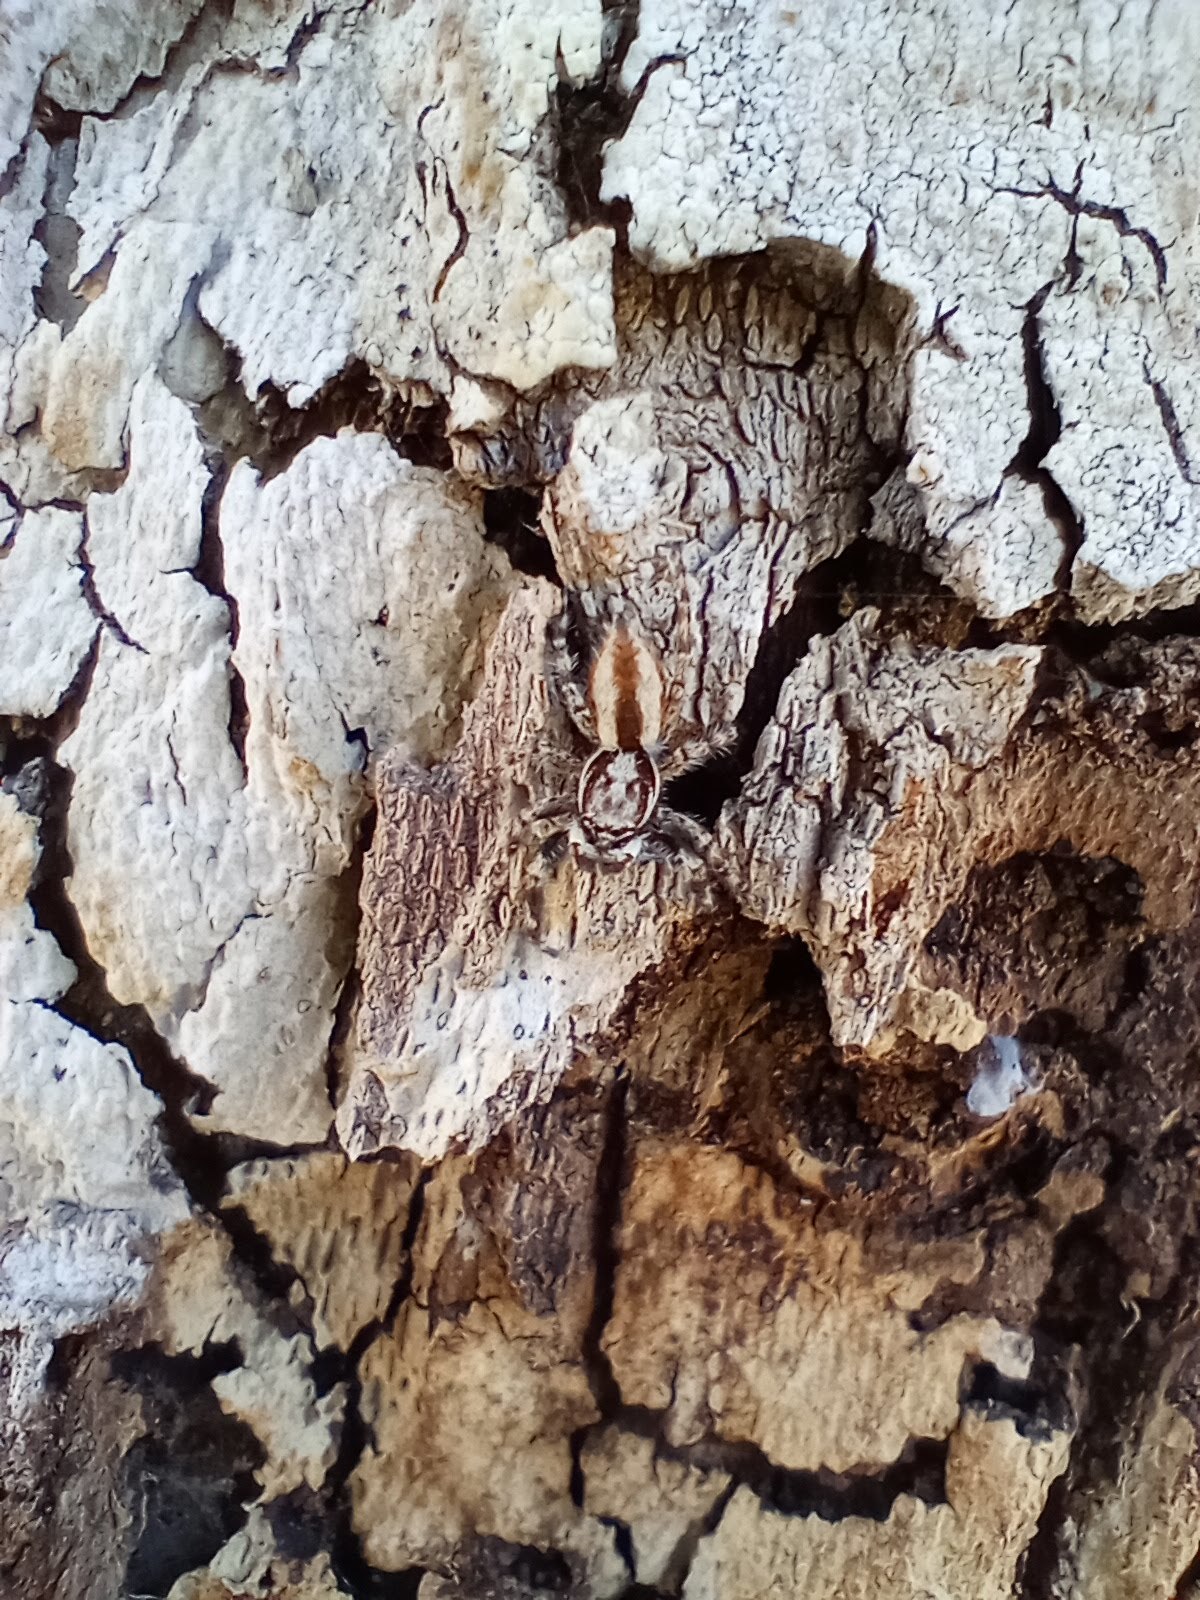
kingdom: Animalia
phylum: Arthropoda
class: Arachnida
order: Araneae
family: Salticidae
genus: Menemerus
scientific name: Menemerus bivittatus
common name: Gray wall jumper
